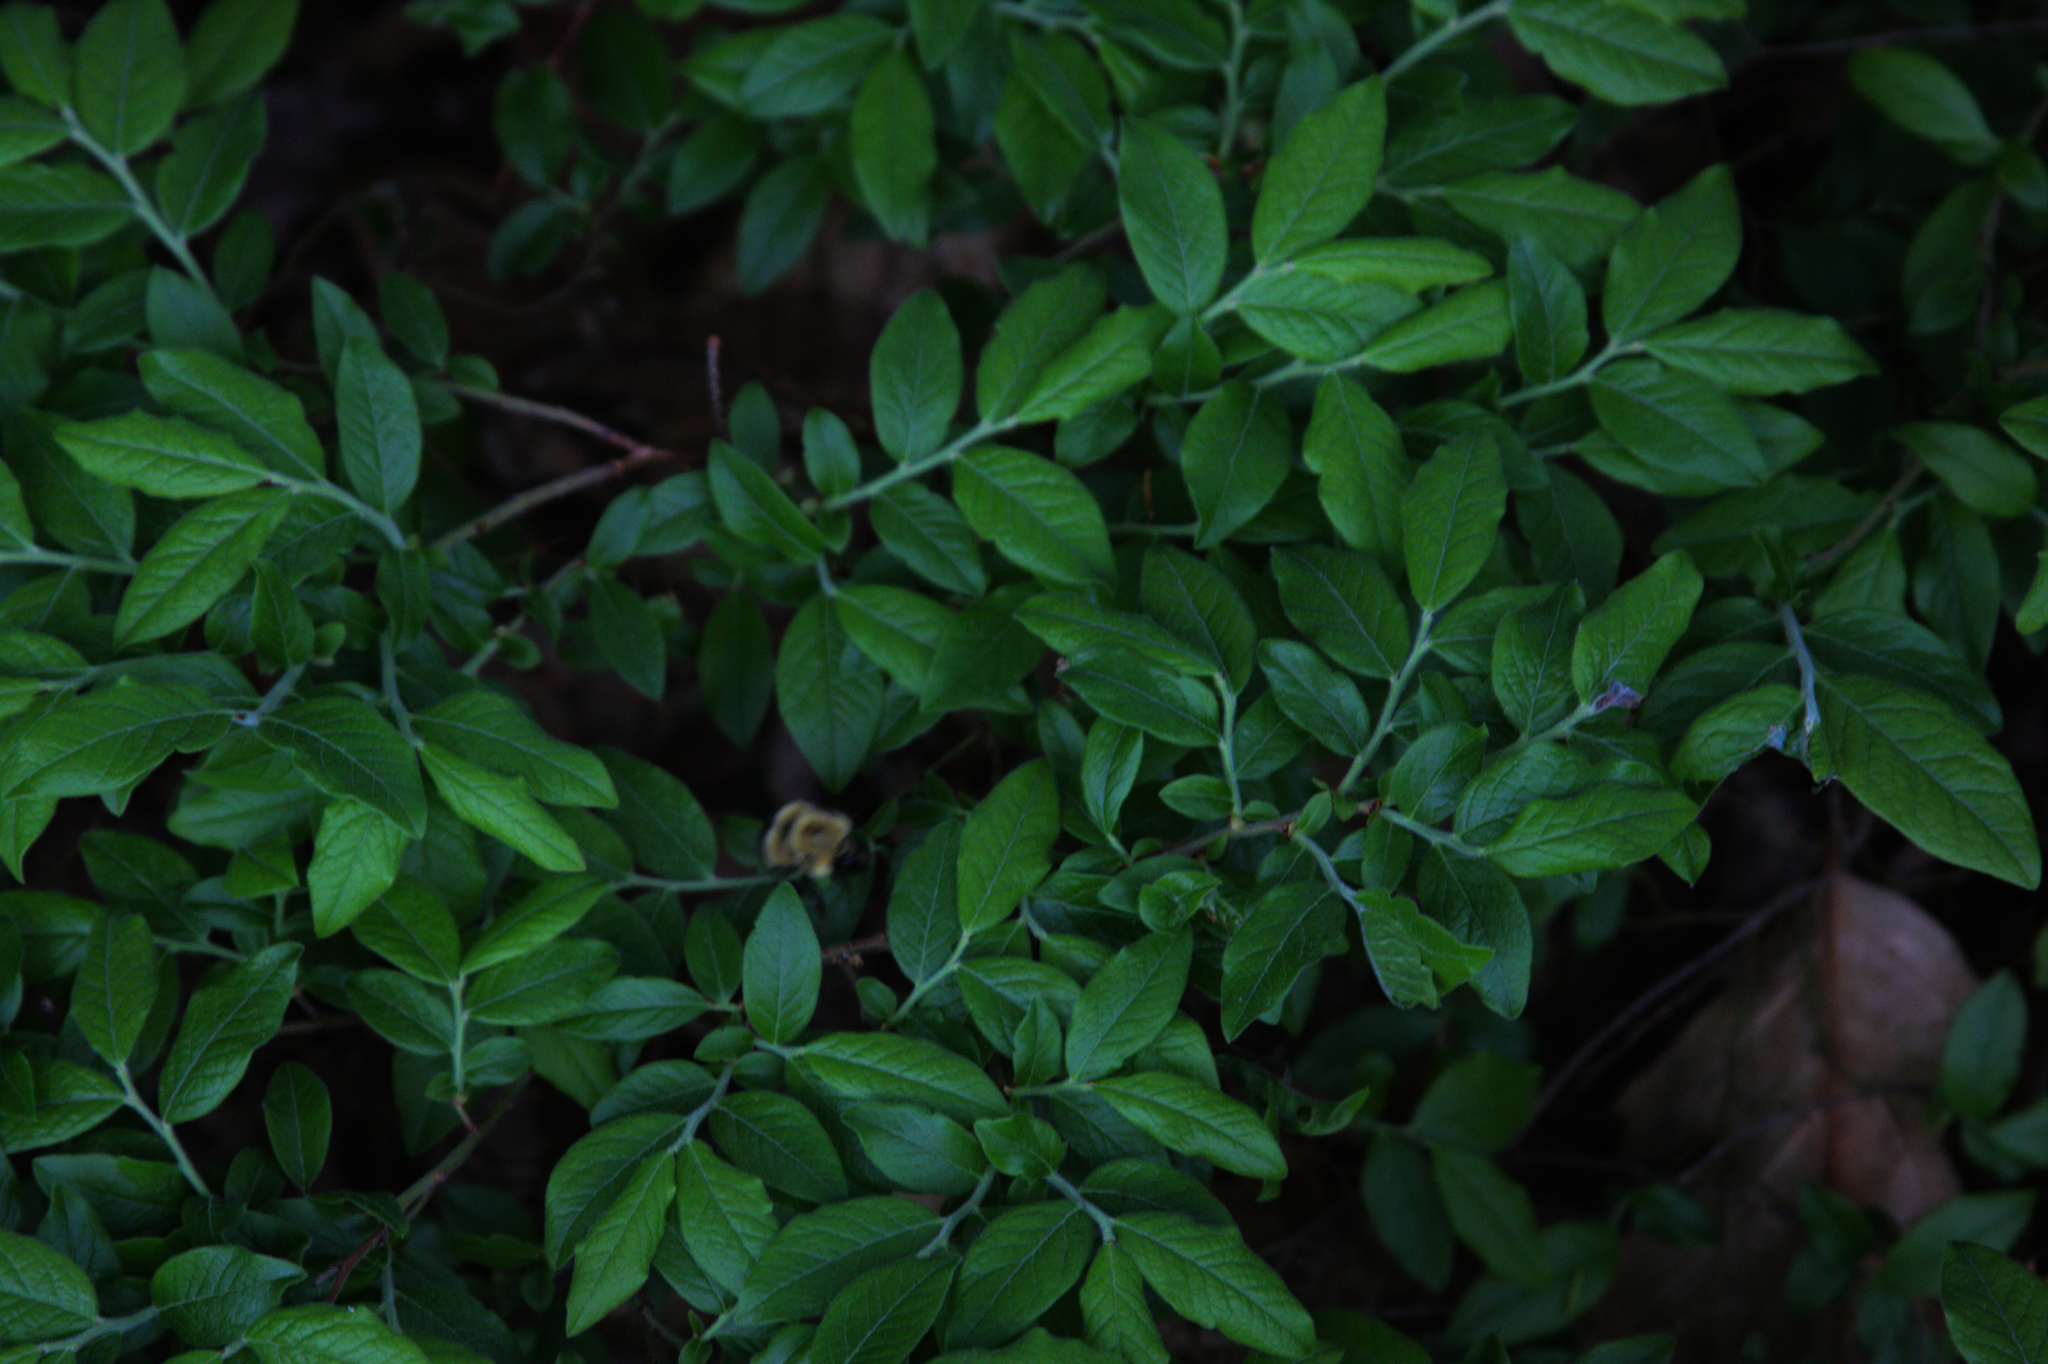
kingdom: Animalia
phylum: Arthropoda
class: Insecta
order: Hymenoptera
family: Apidae
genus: Pyrobombus
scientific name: Pyrobombus
